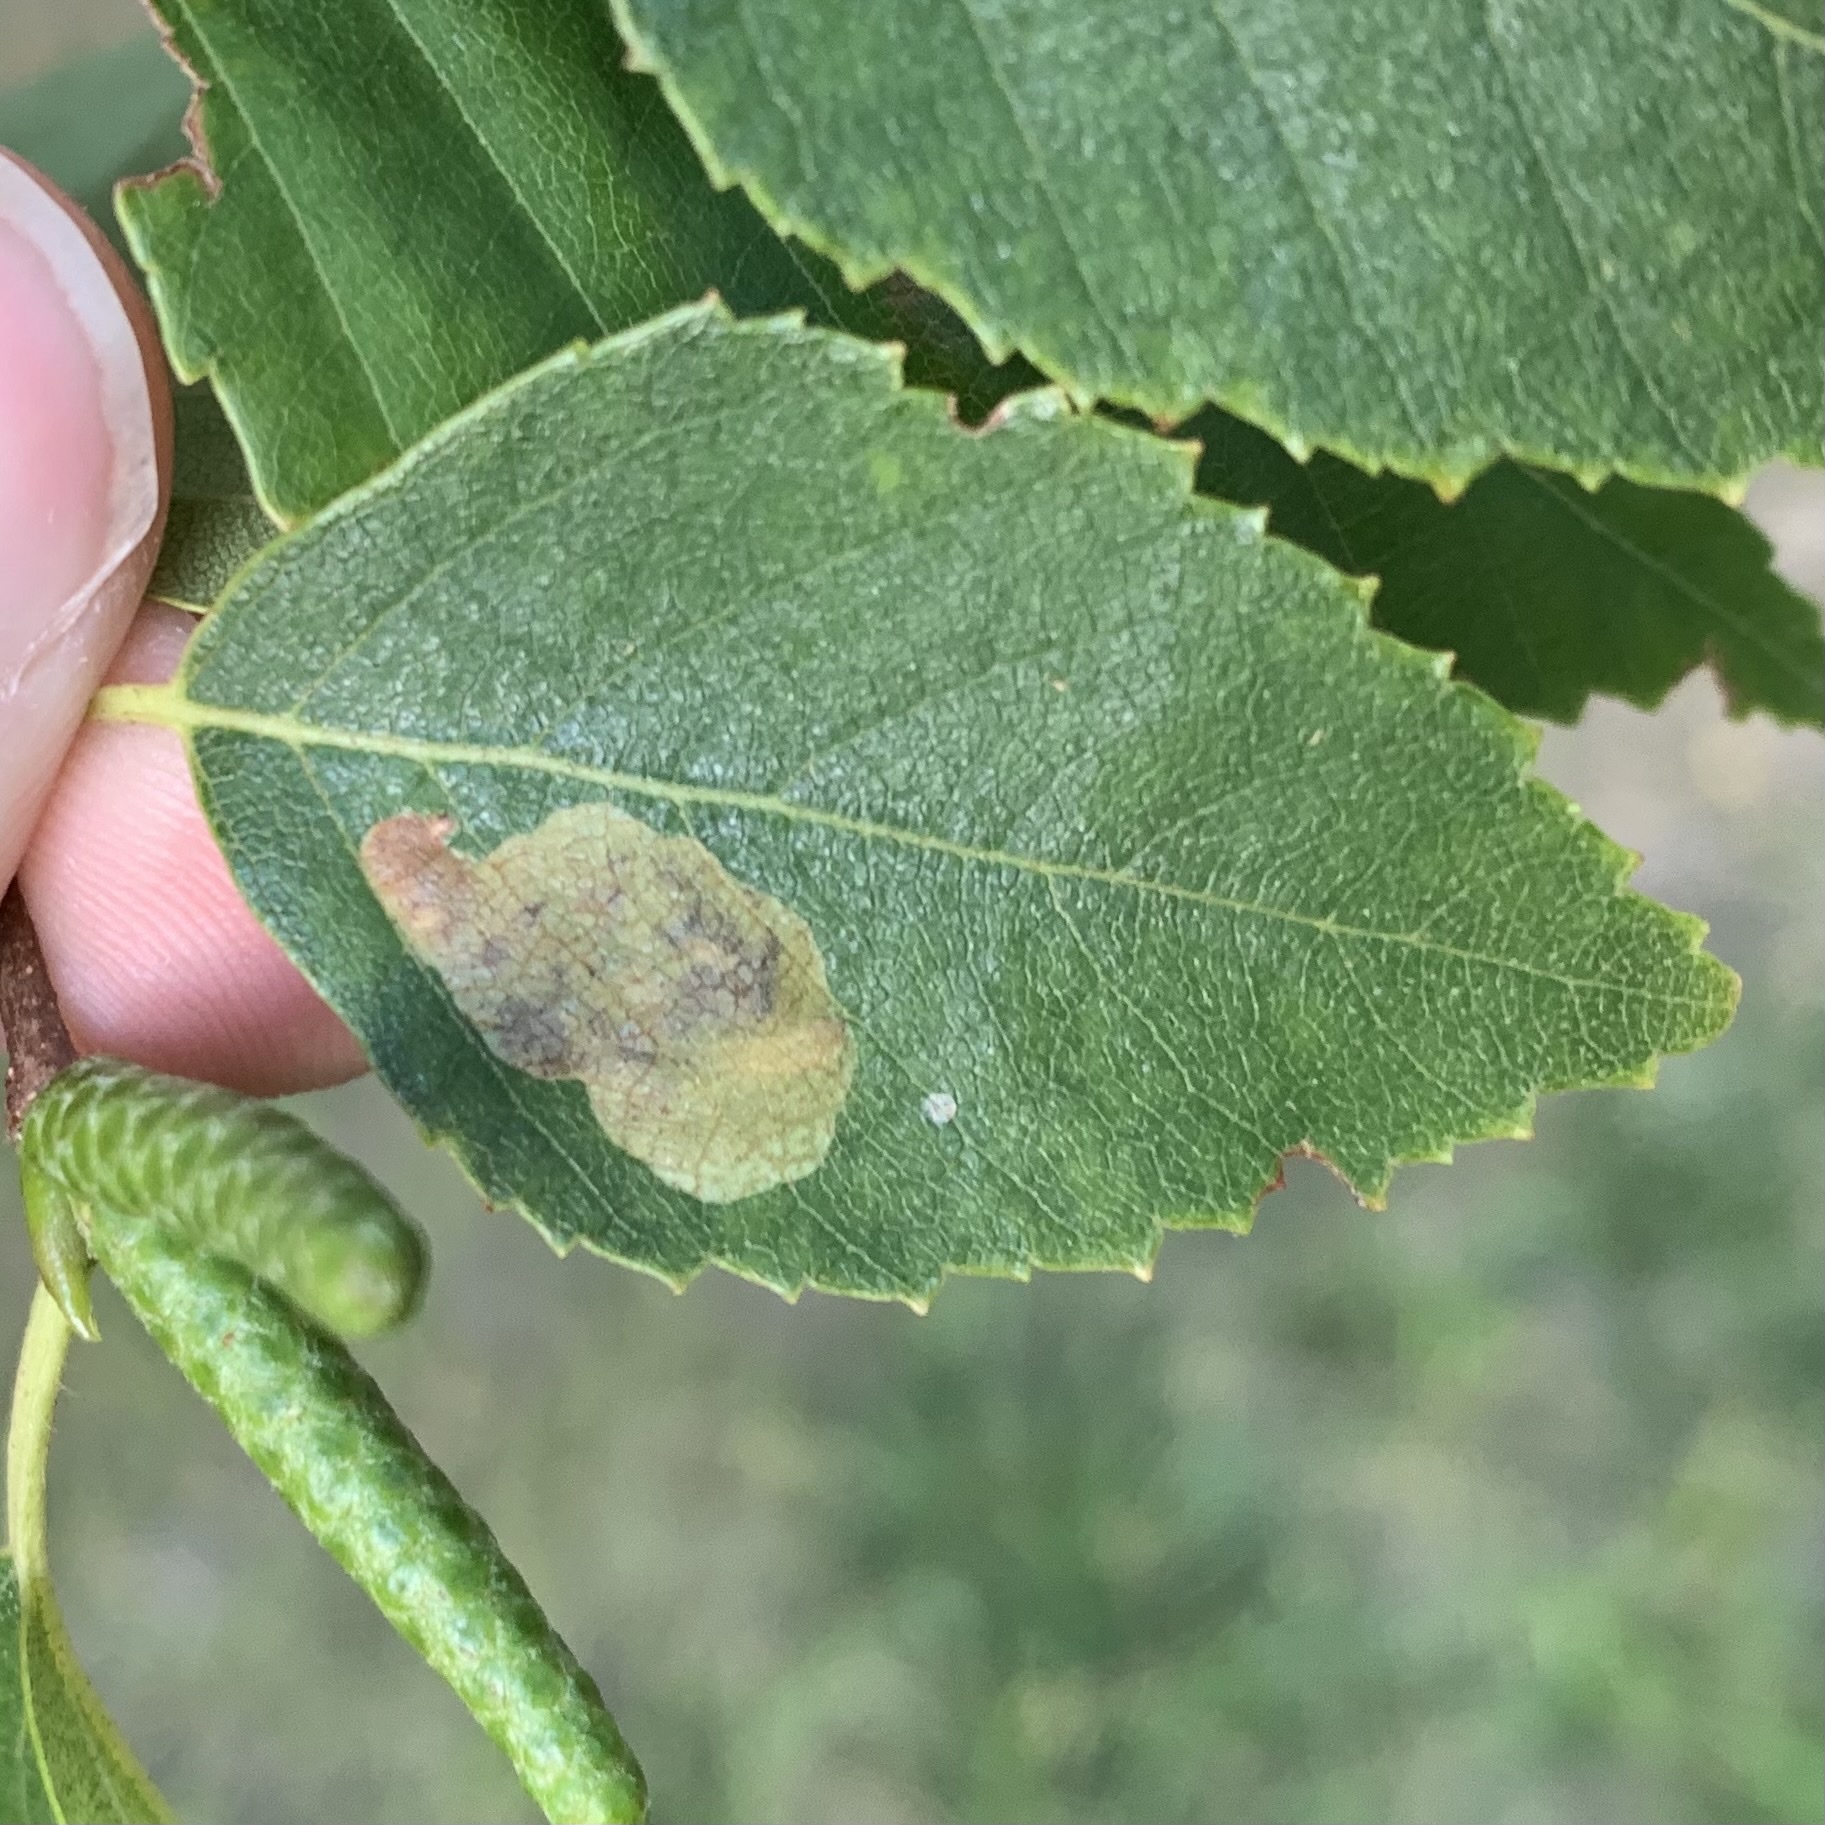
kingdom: Animalia
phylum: Arthropoda
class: Insecta
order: Hymenoptera
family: Tenthredinidae
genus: Profenusa
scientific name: Profenusa thomsoni
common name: Amber-marked birch leafminer
